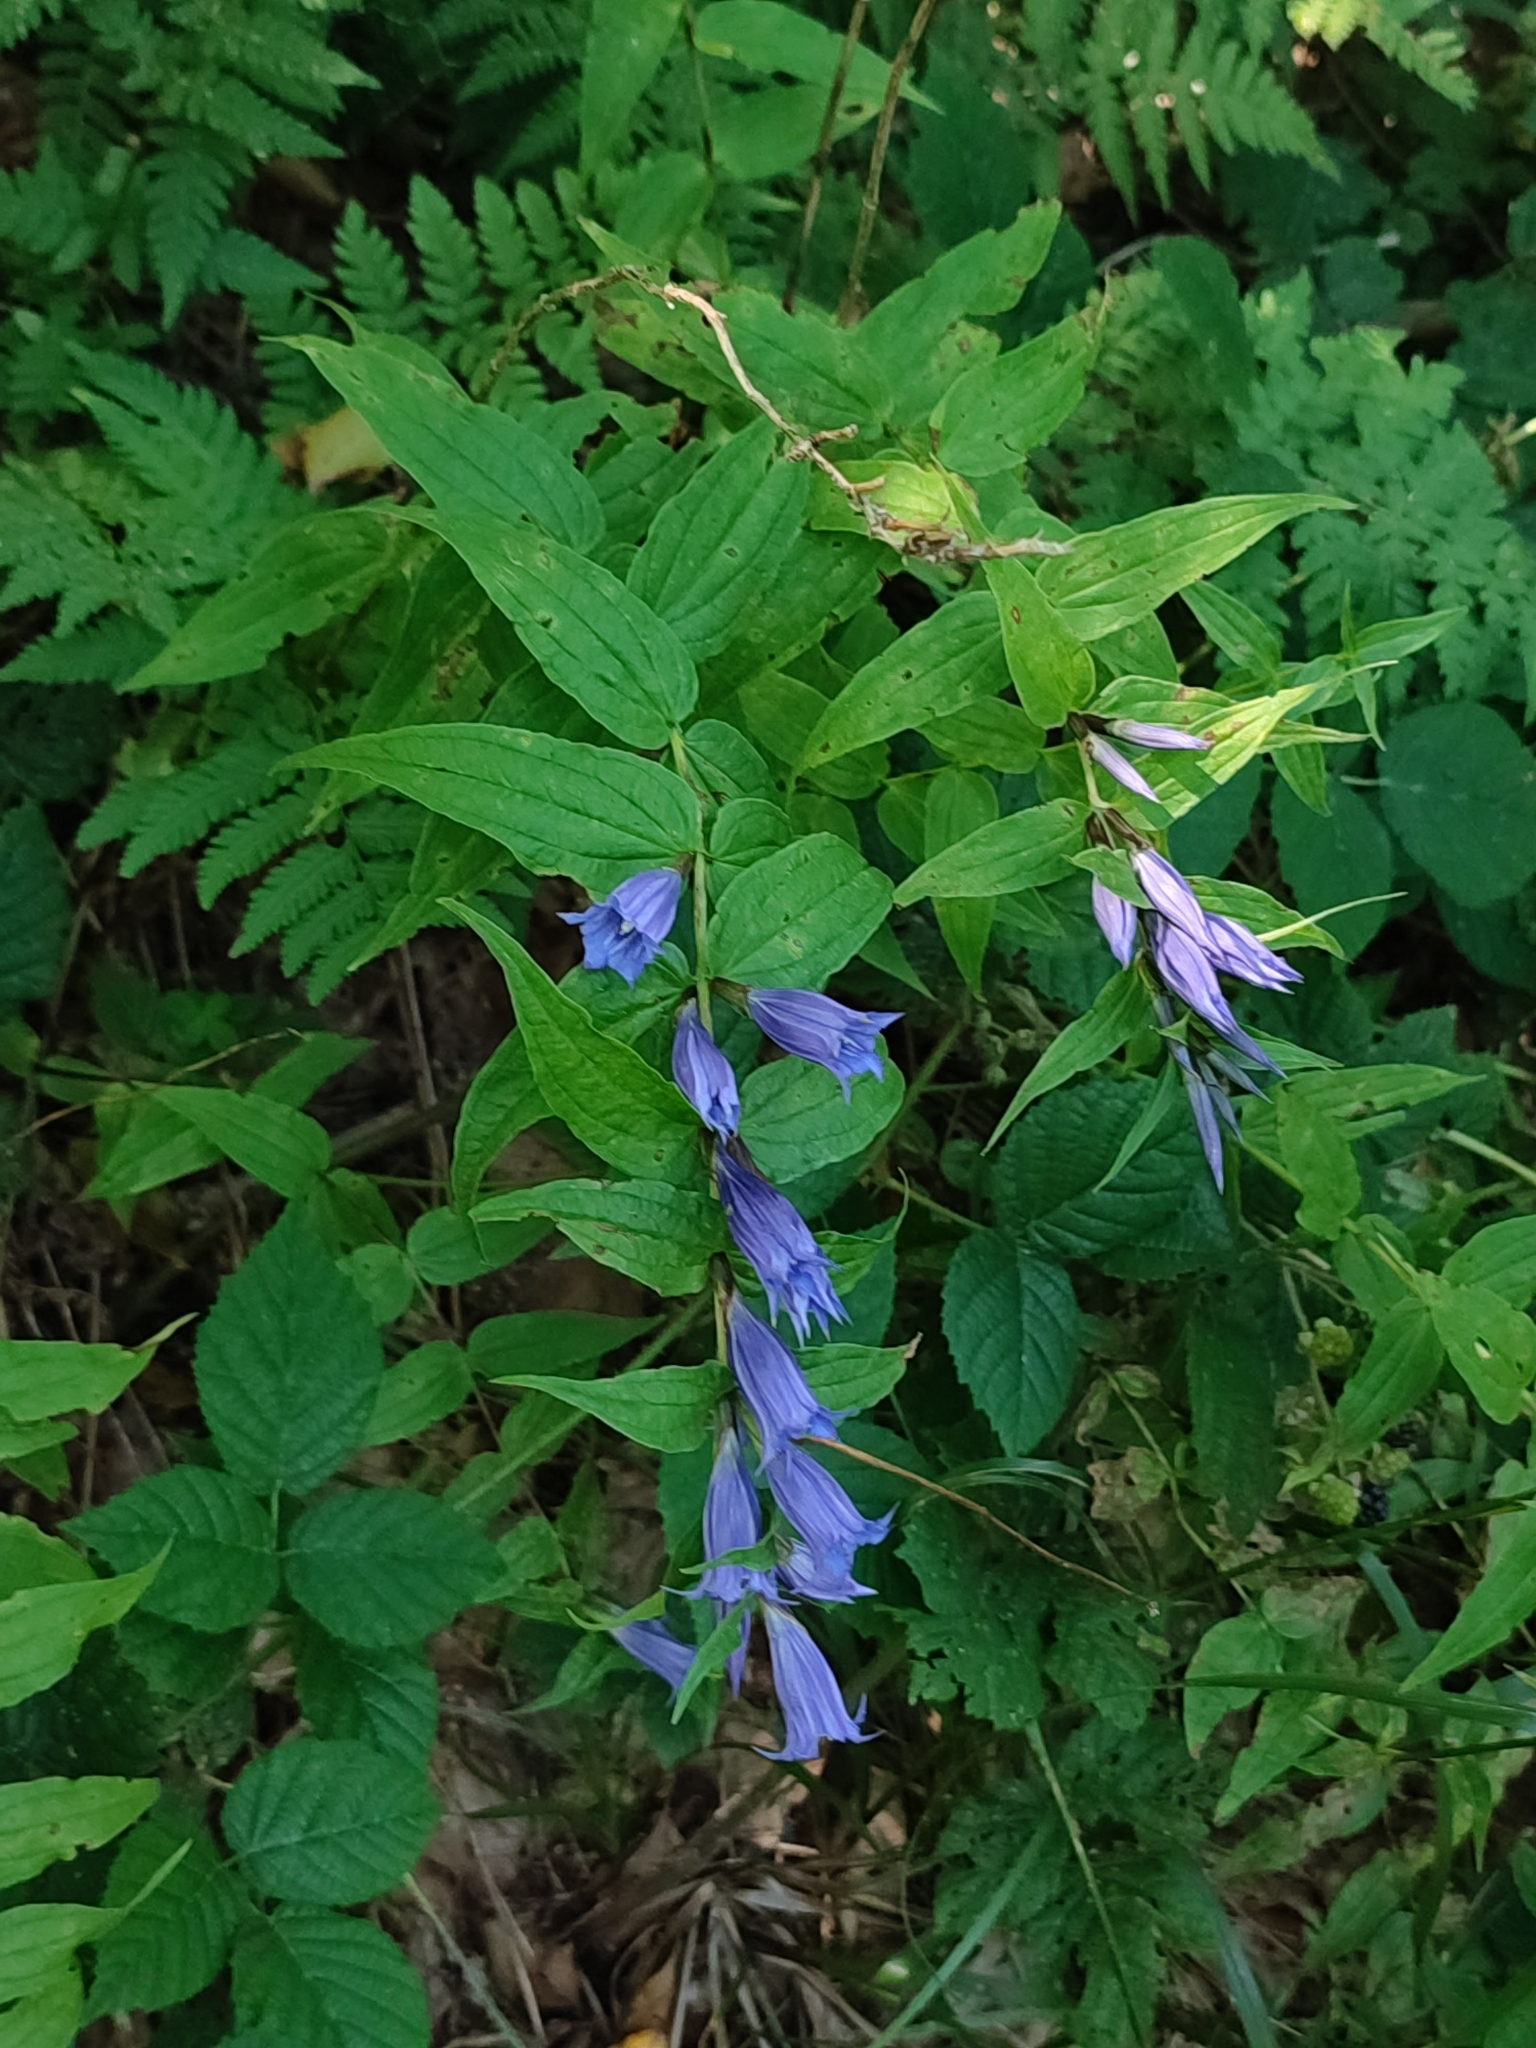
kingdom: Plantae
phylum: Tracheophyta
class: Magnoliopsida
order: Gentianales
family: Gentianaceae
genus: Gentiana
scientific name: Gentiana asclepiadea
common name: Willow gentian
